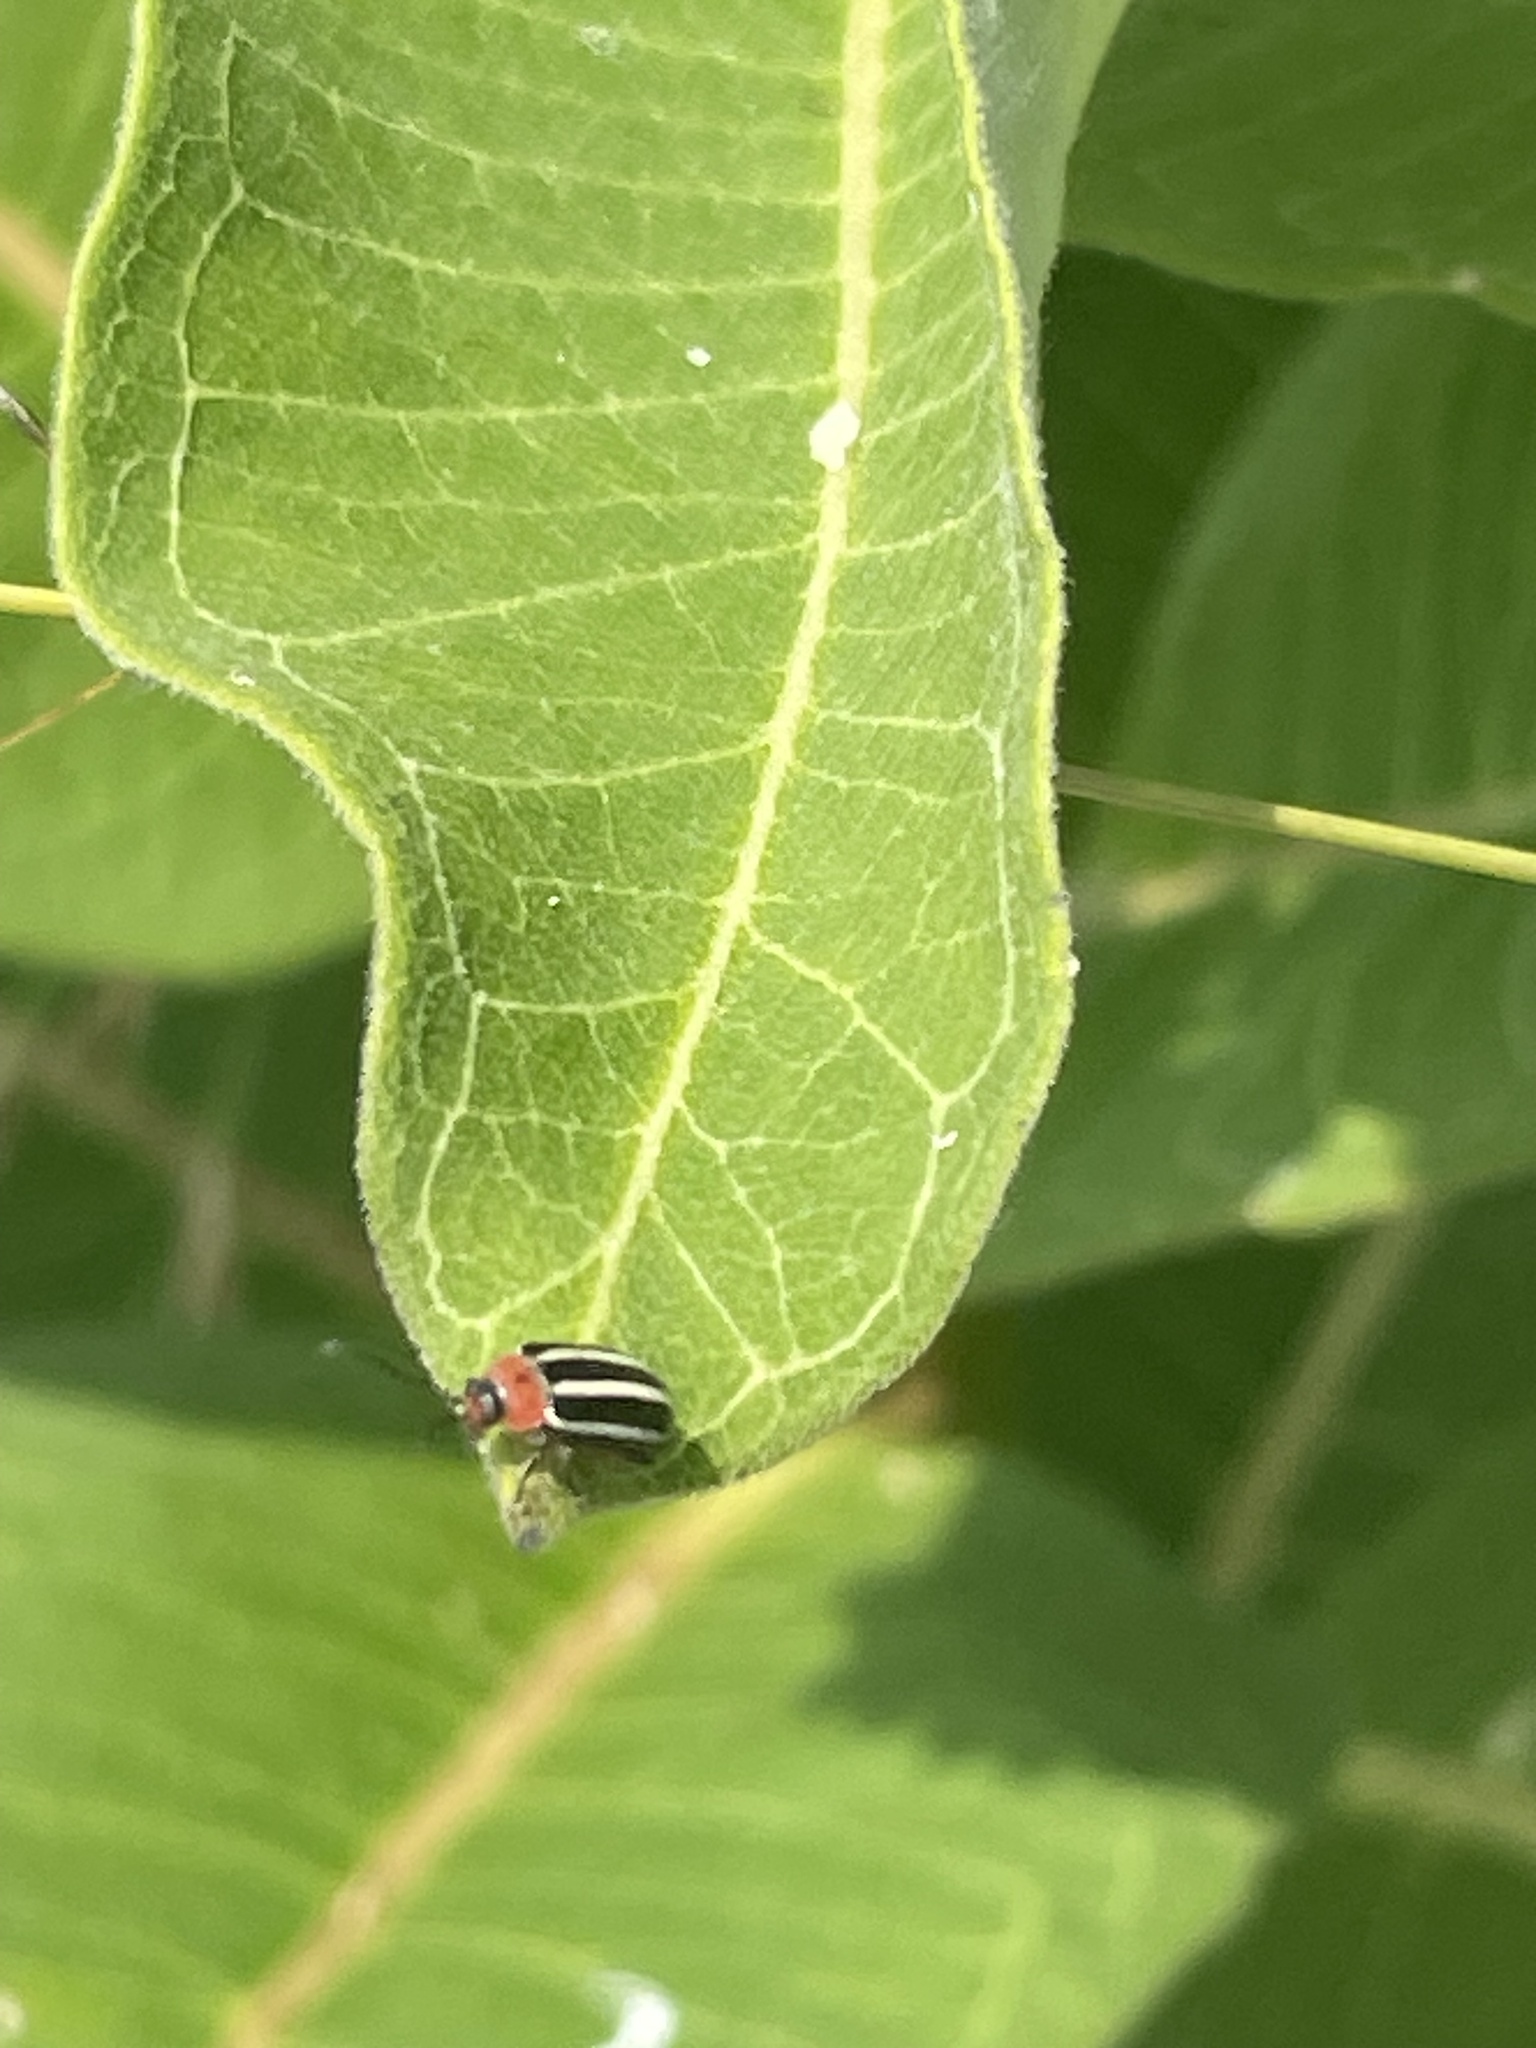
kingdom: Animalia
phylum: Arthropoda
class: Insecta
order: Coleoptera
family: Chrysomelidae
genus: Disonycha
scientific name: Disonycha glabrata
